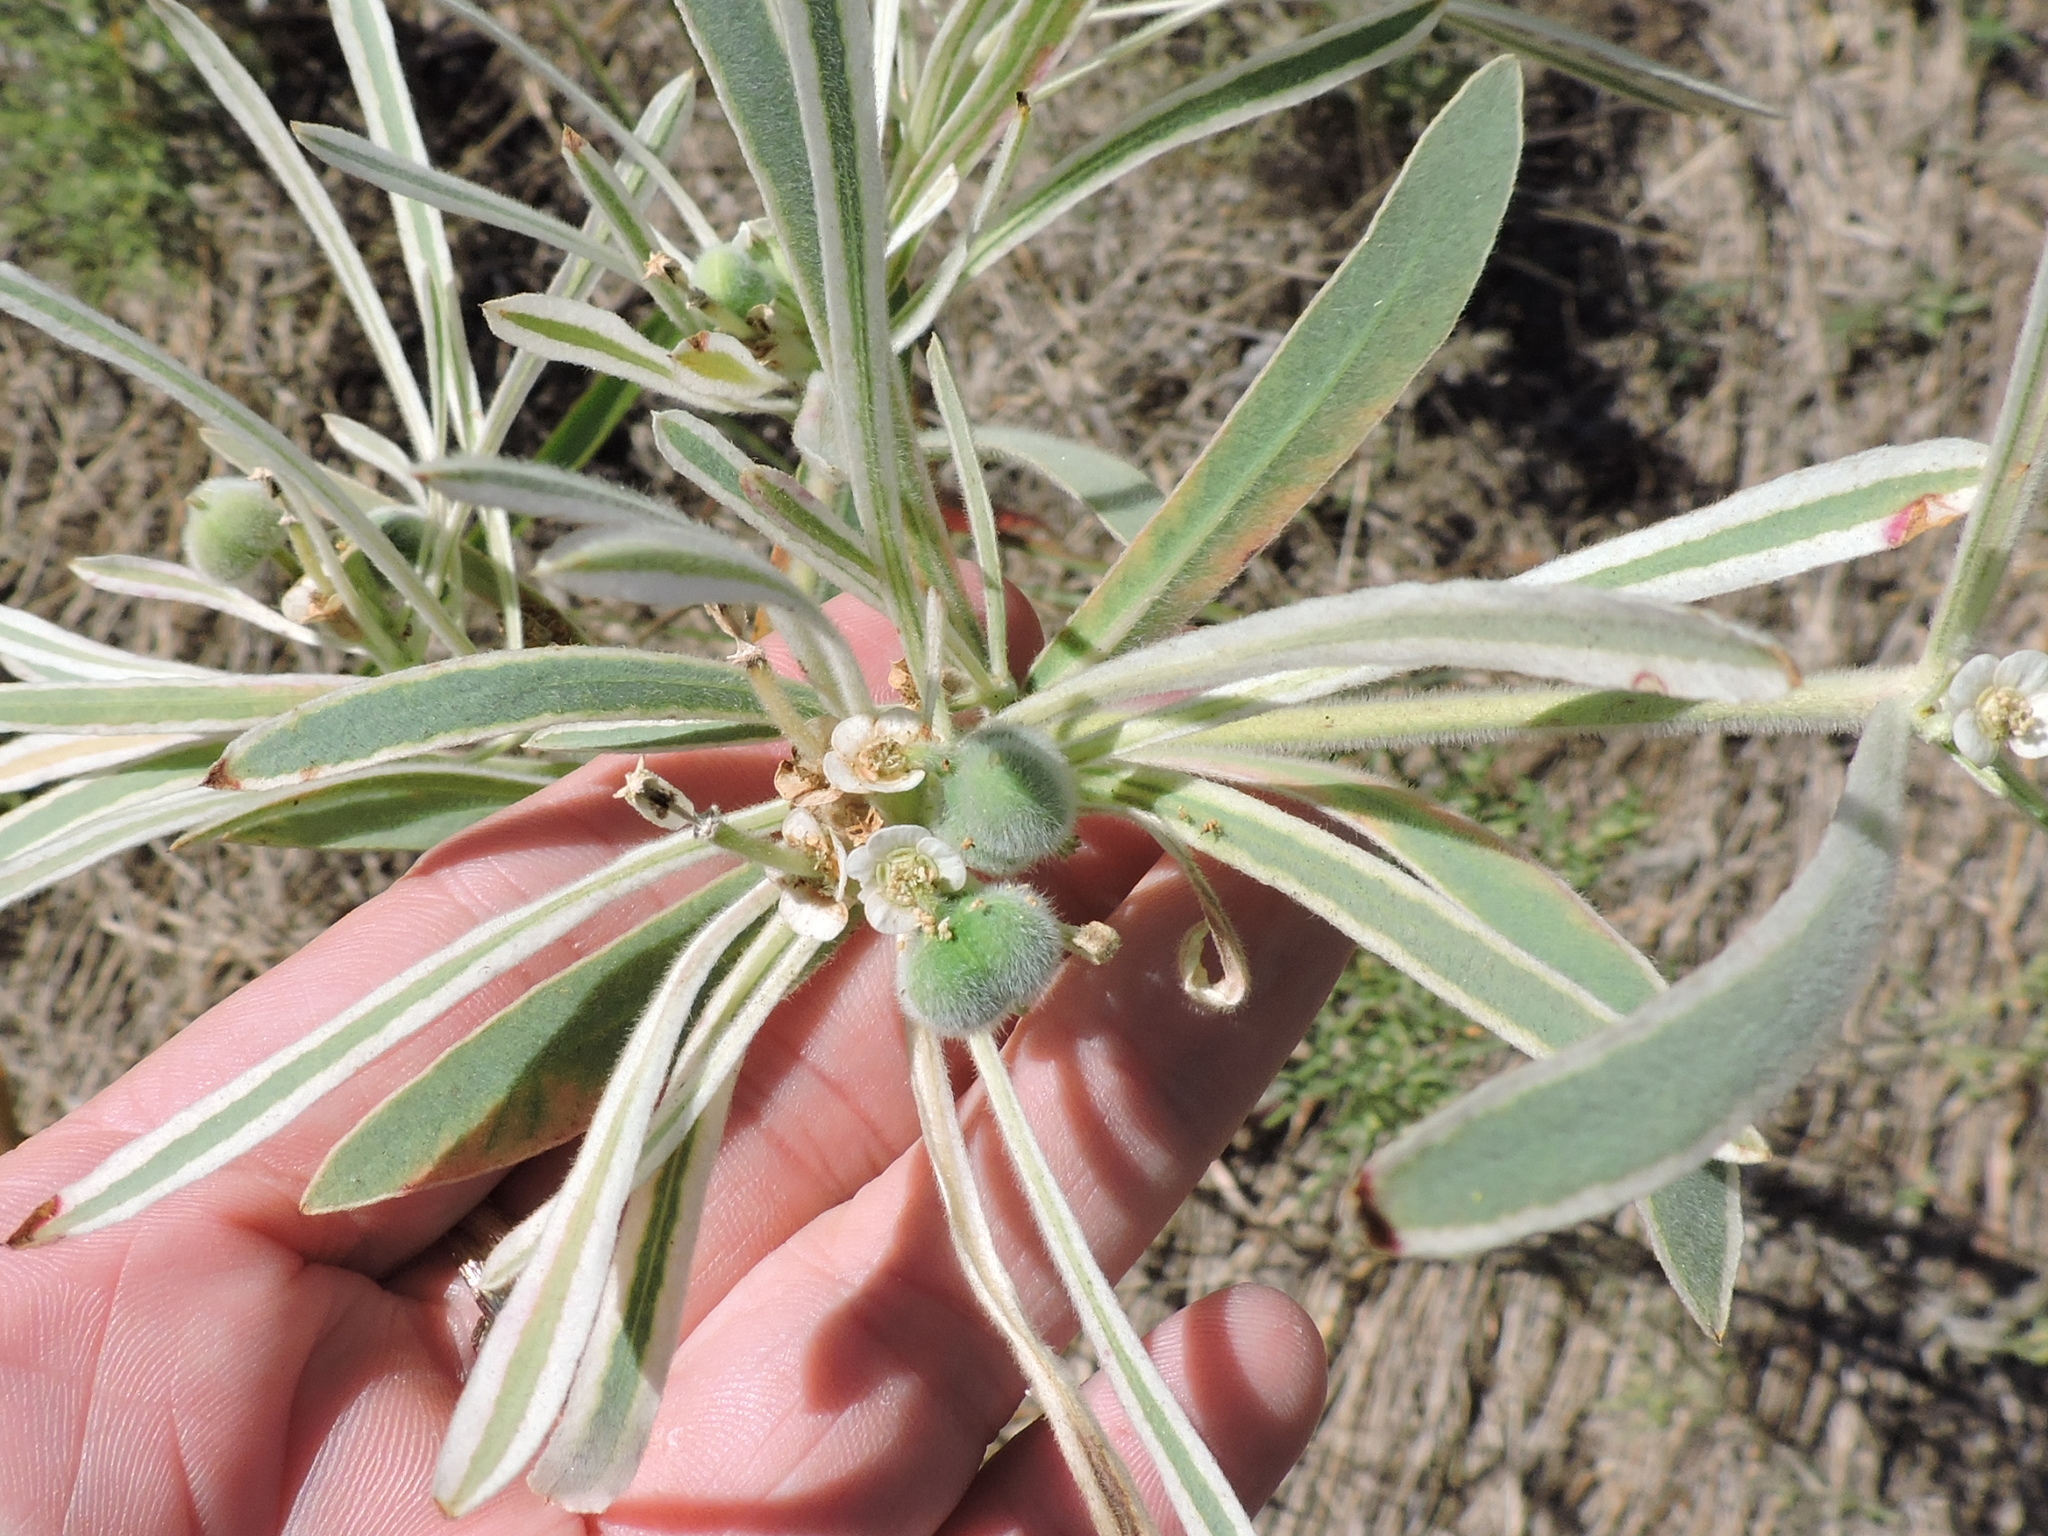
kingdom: Plantae
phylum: Tracheophyta
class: Magnoliopsida
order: Malpighiales
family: Euphorbiaceae
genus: Euphorbia
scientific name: Euphorbia bicolor
